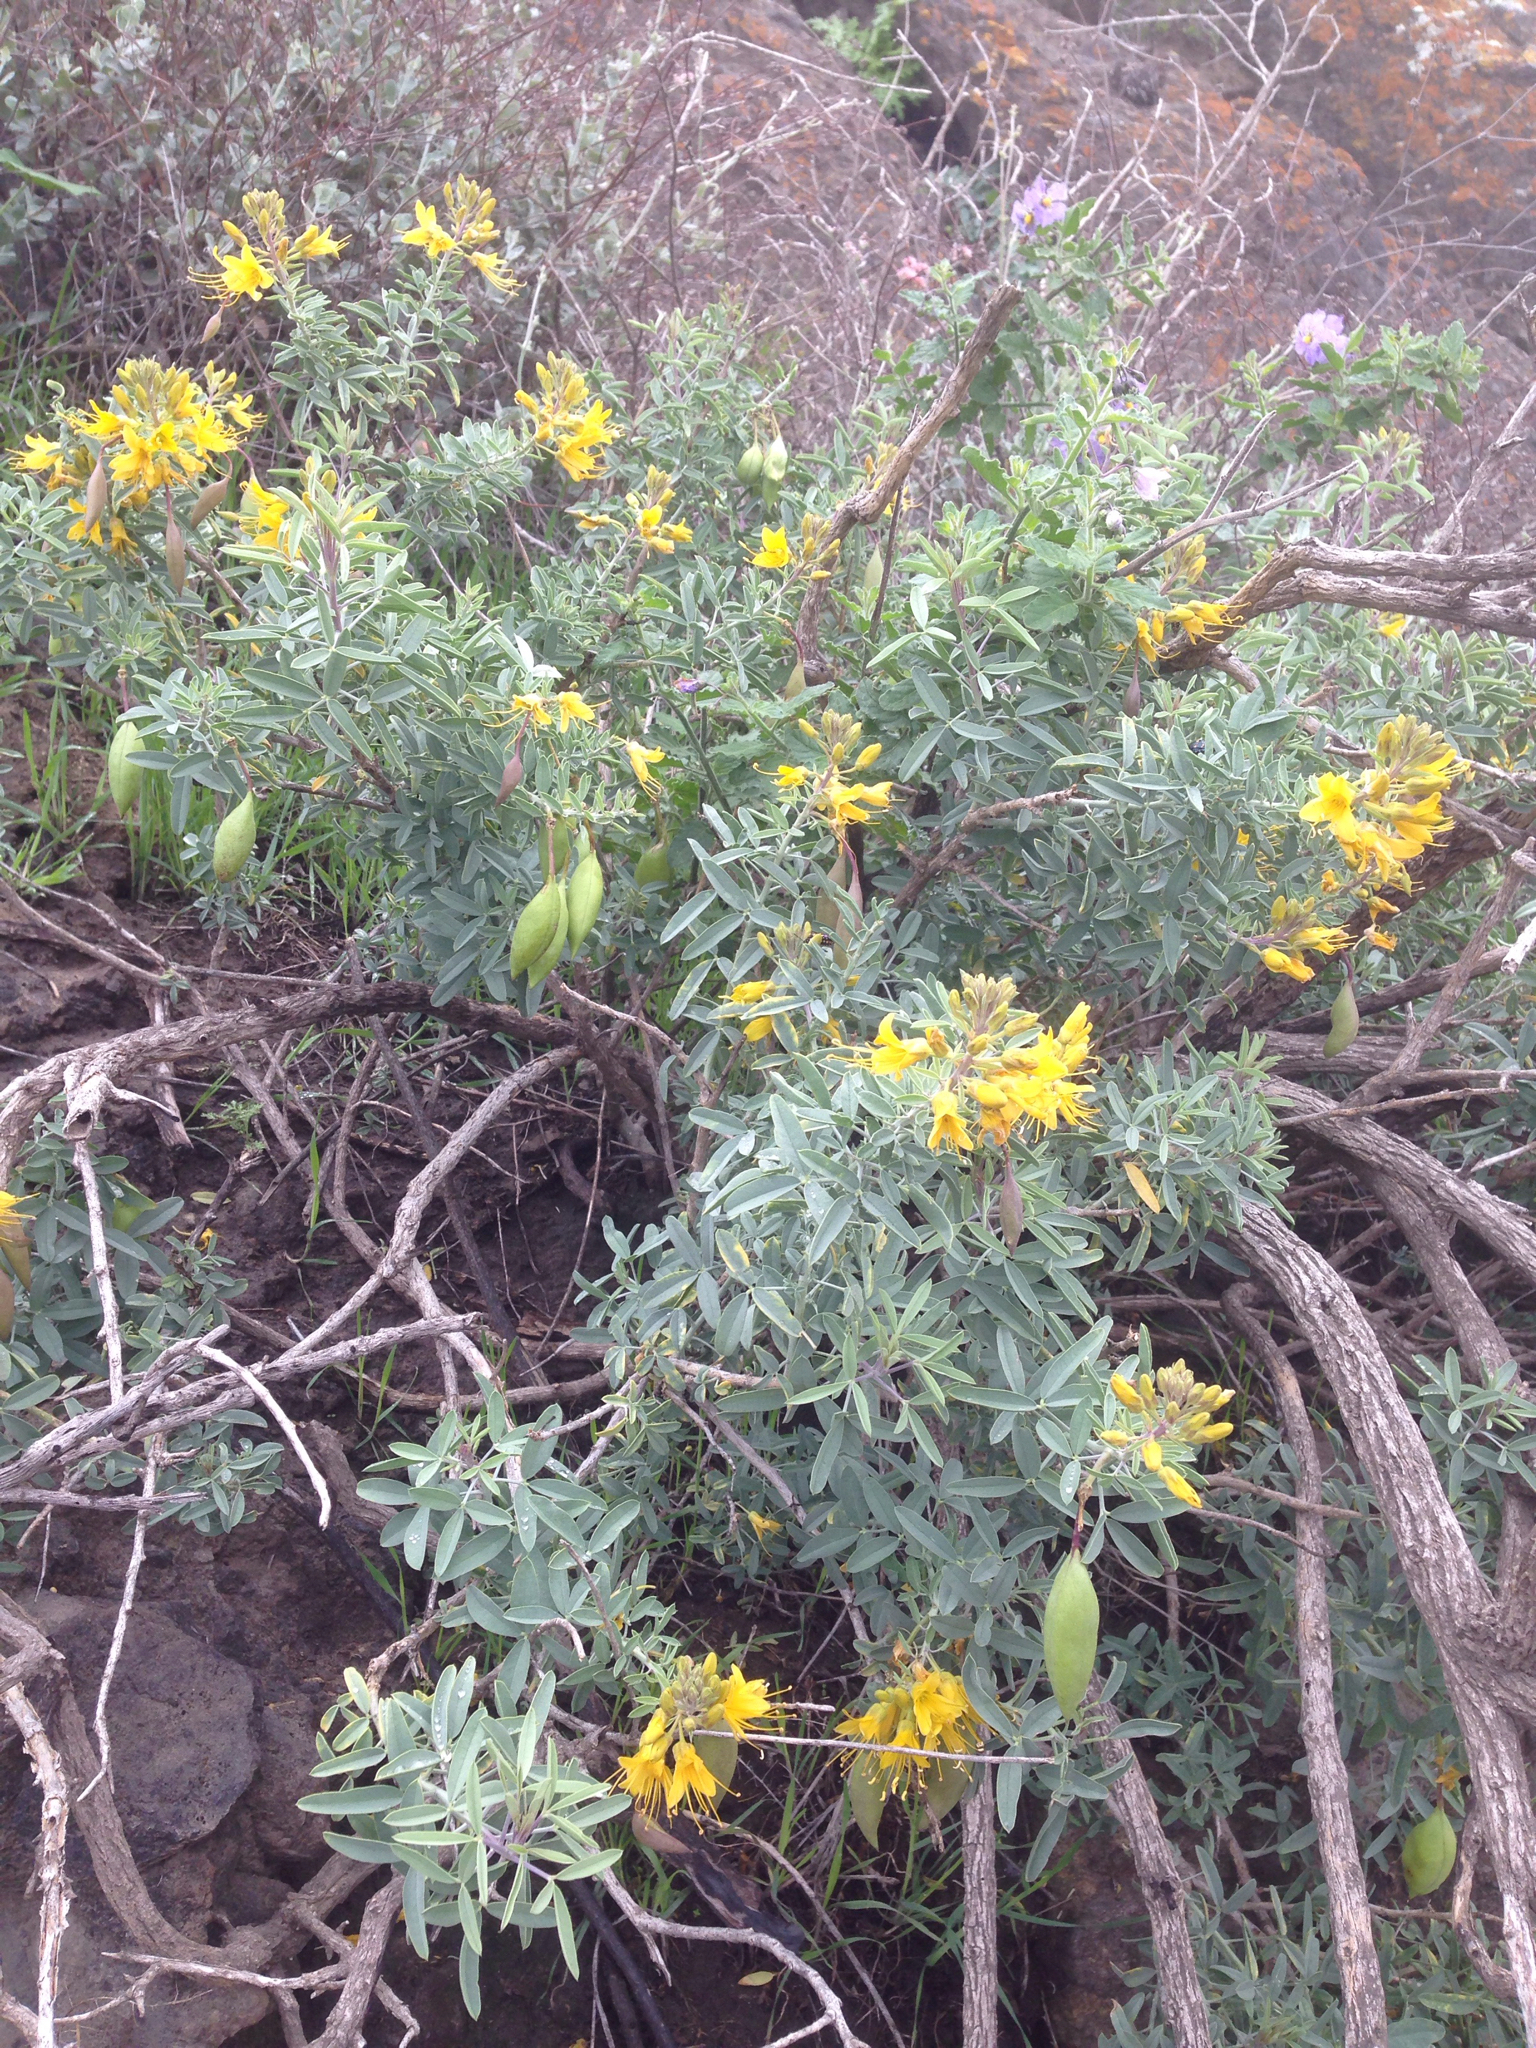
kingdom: Plantae
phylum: Tracheophyta
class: Magnoliopsida
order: Brassicales
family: Cleomaceae
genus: Cleomella
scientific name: Cleomella arborea
